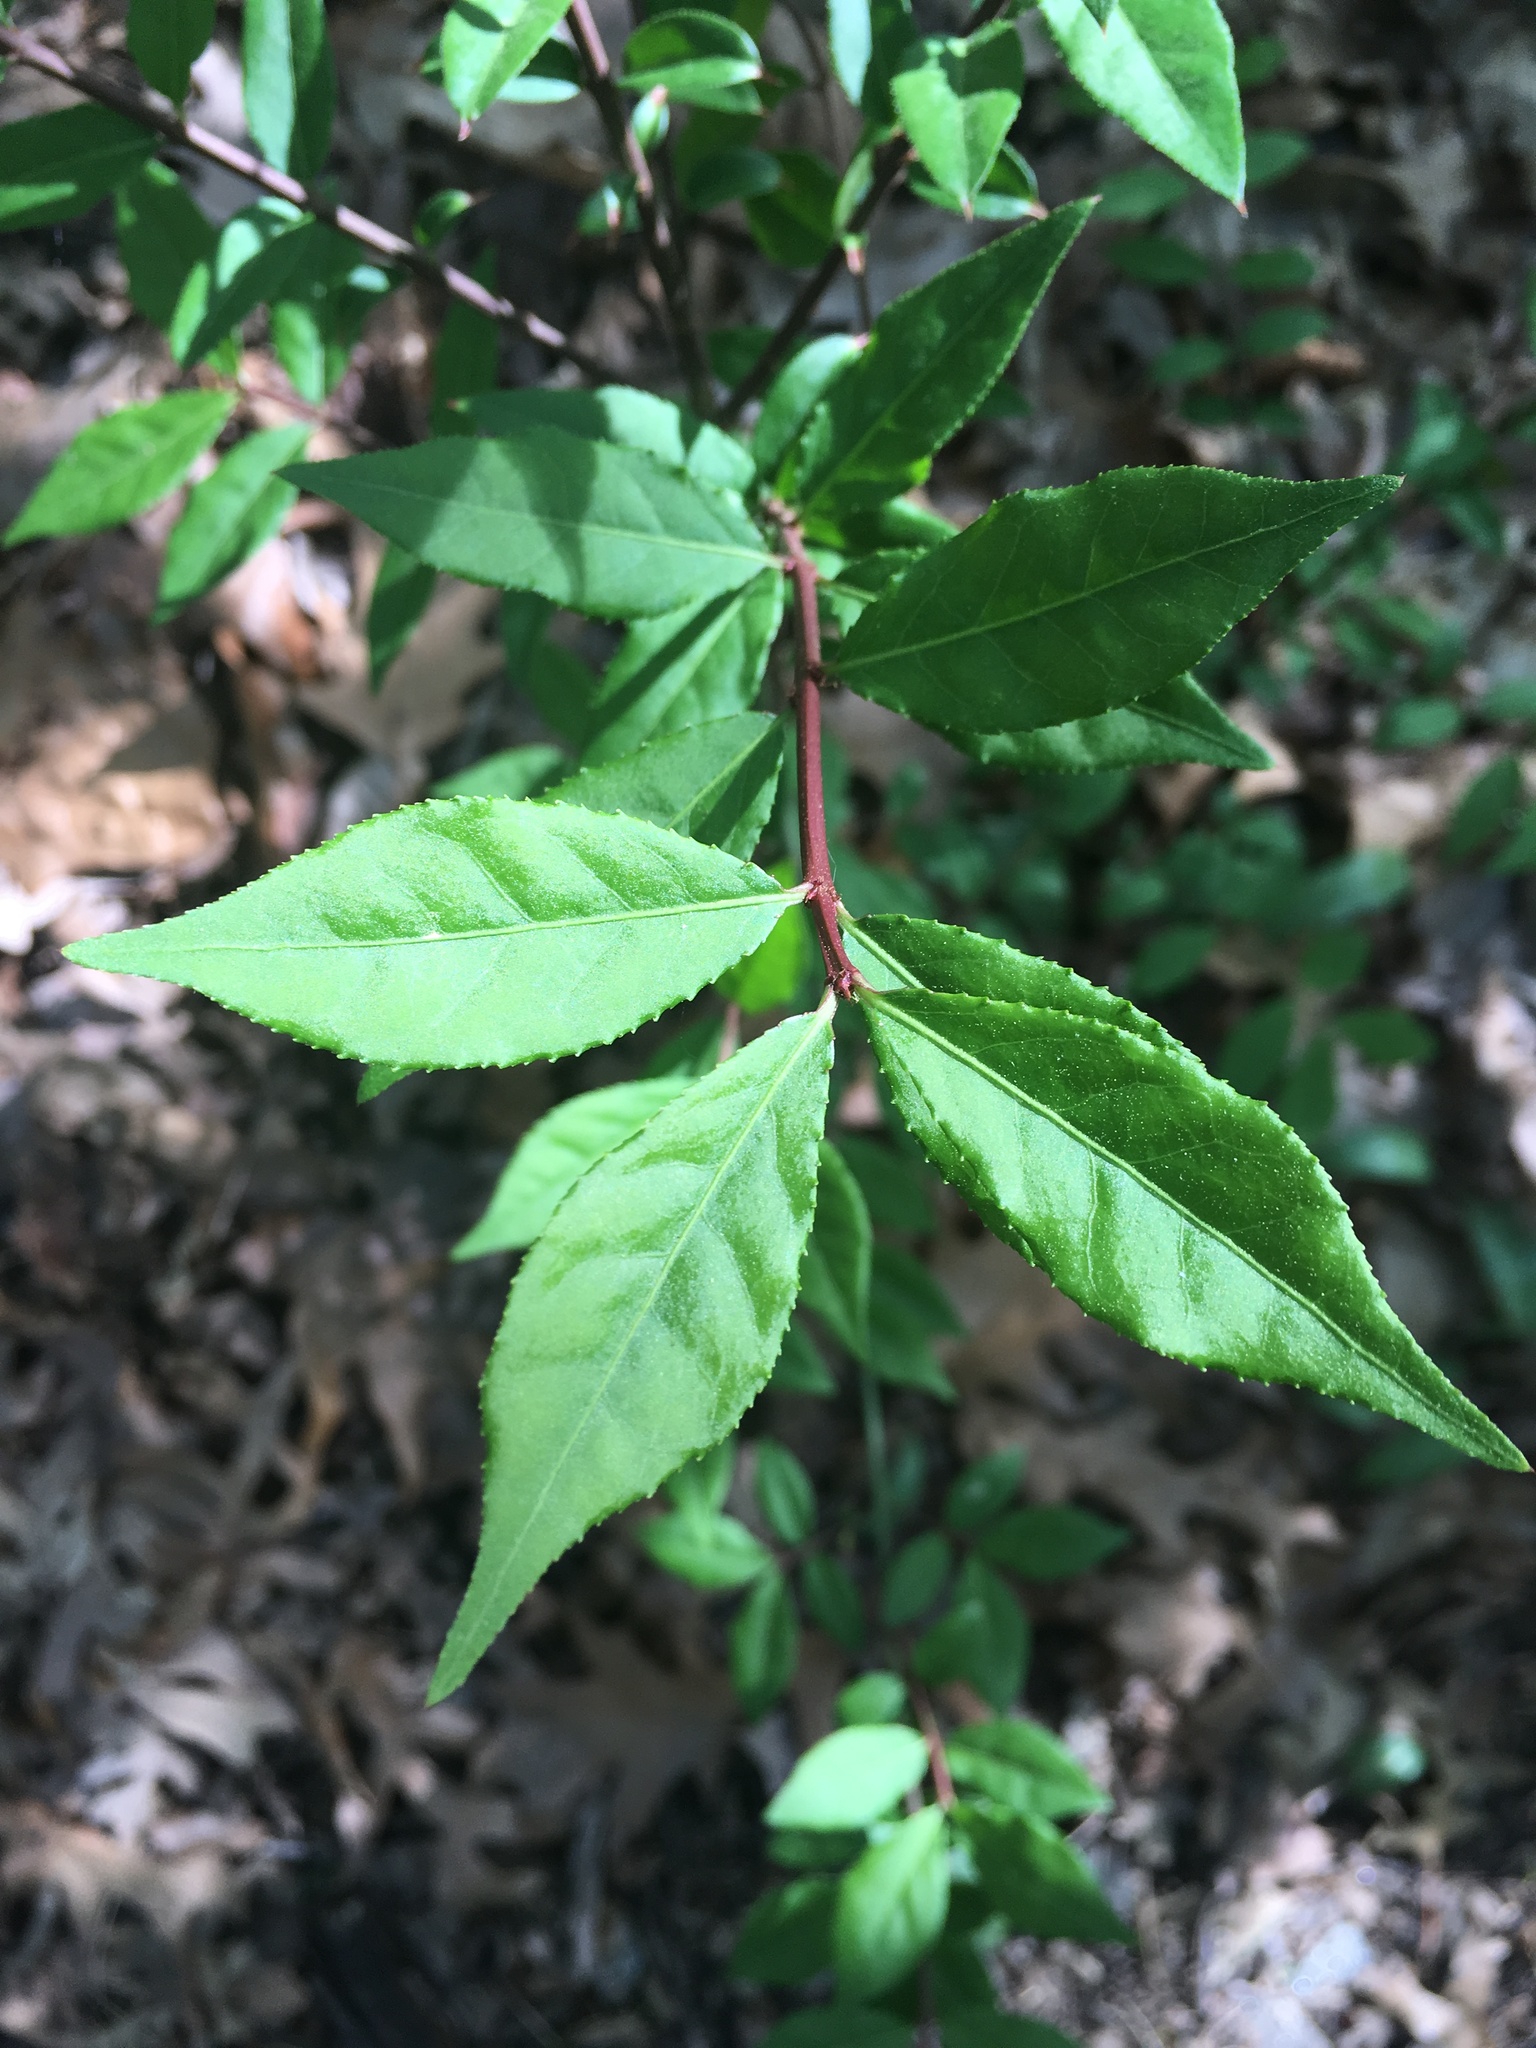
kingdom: Plantae
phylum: Tracheophyta
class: Magnoliopsida
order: Celastrales
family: Celastraceae
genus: Euonymus
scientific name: Euonymus alatus
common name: Winged euonymus
